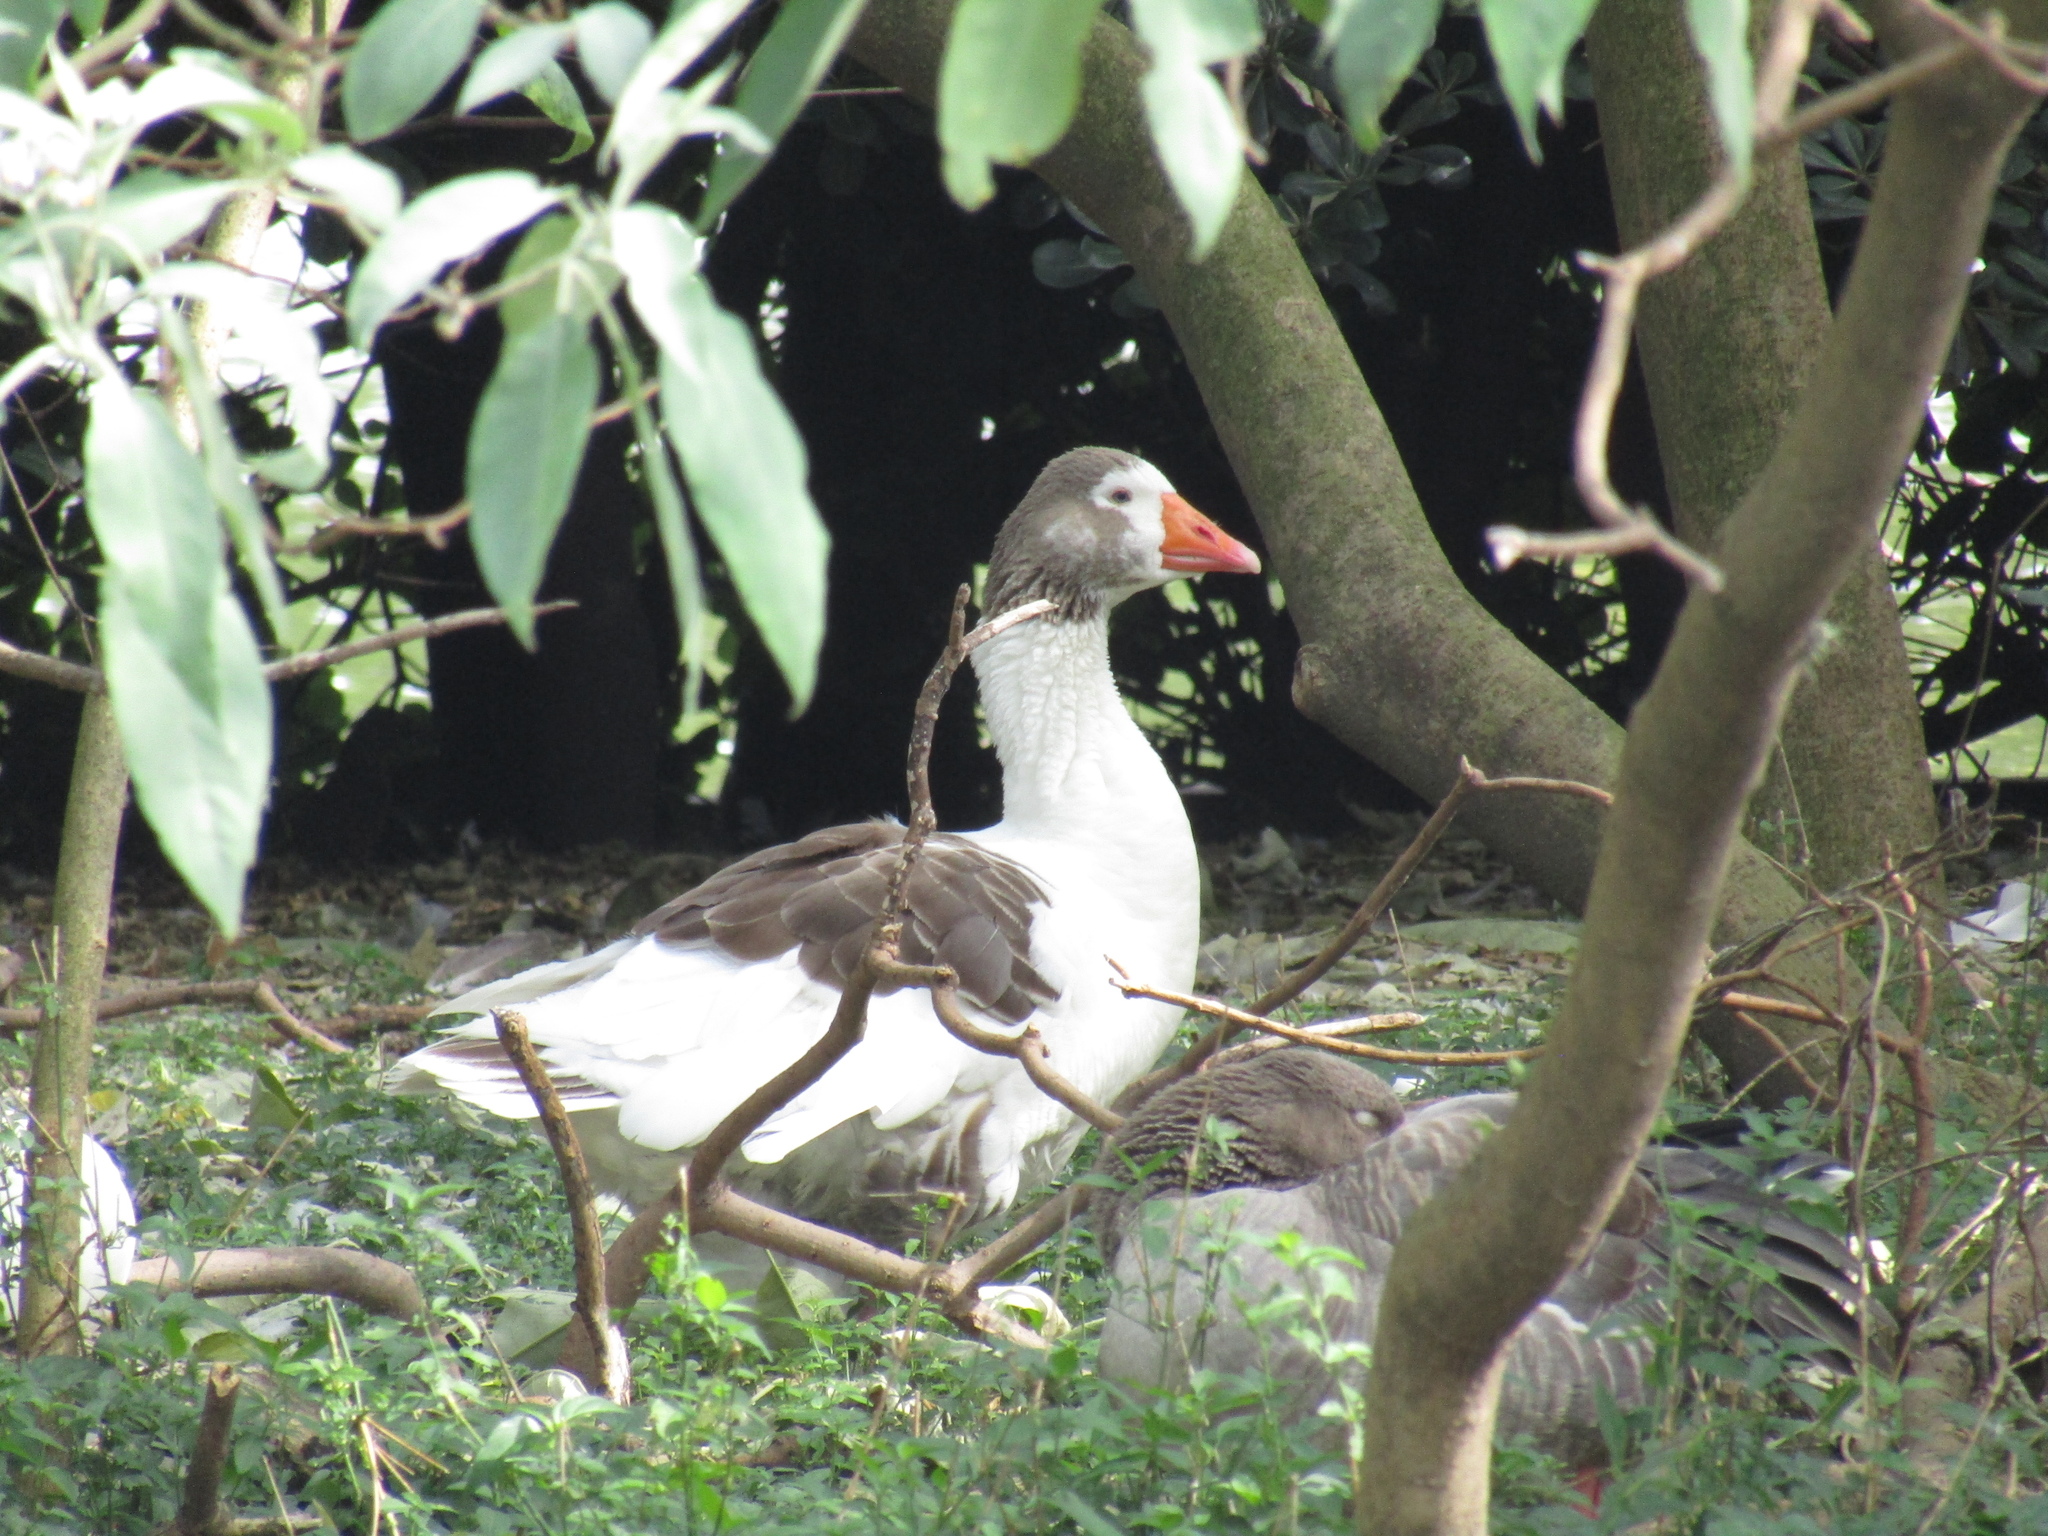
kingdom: Animalia
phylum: Chordata
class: Aves
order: Anseriformes
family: Anatidae
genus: Anser
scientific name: Anser anser
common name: Greylag goose
